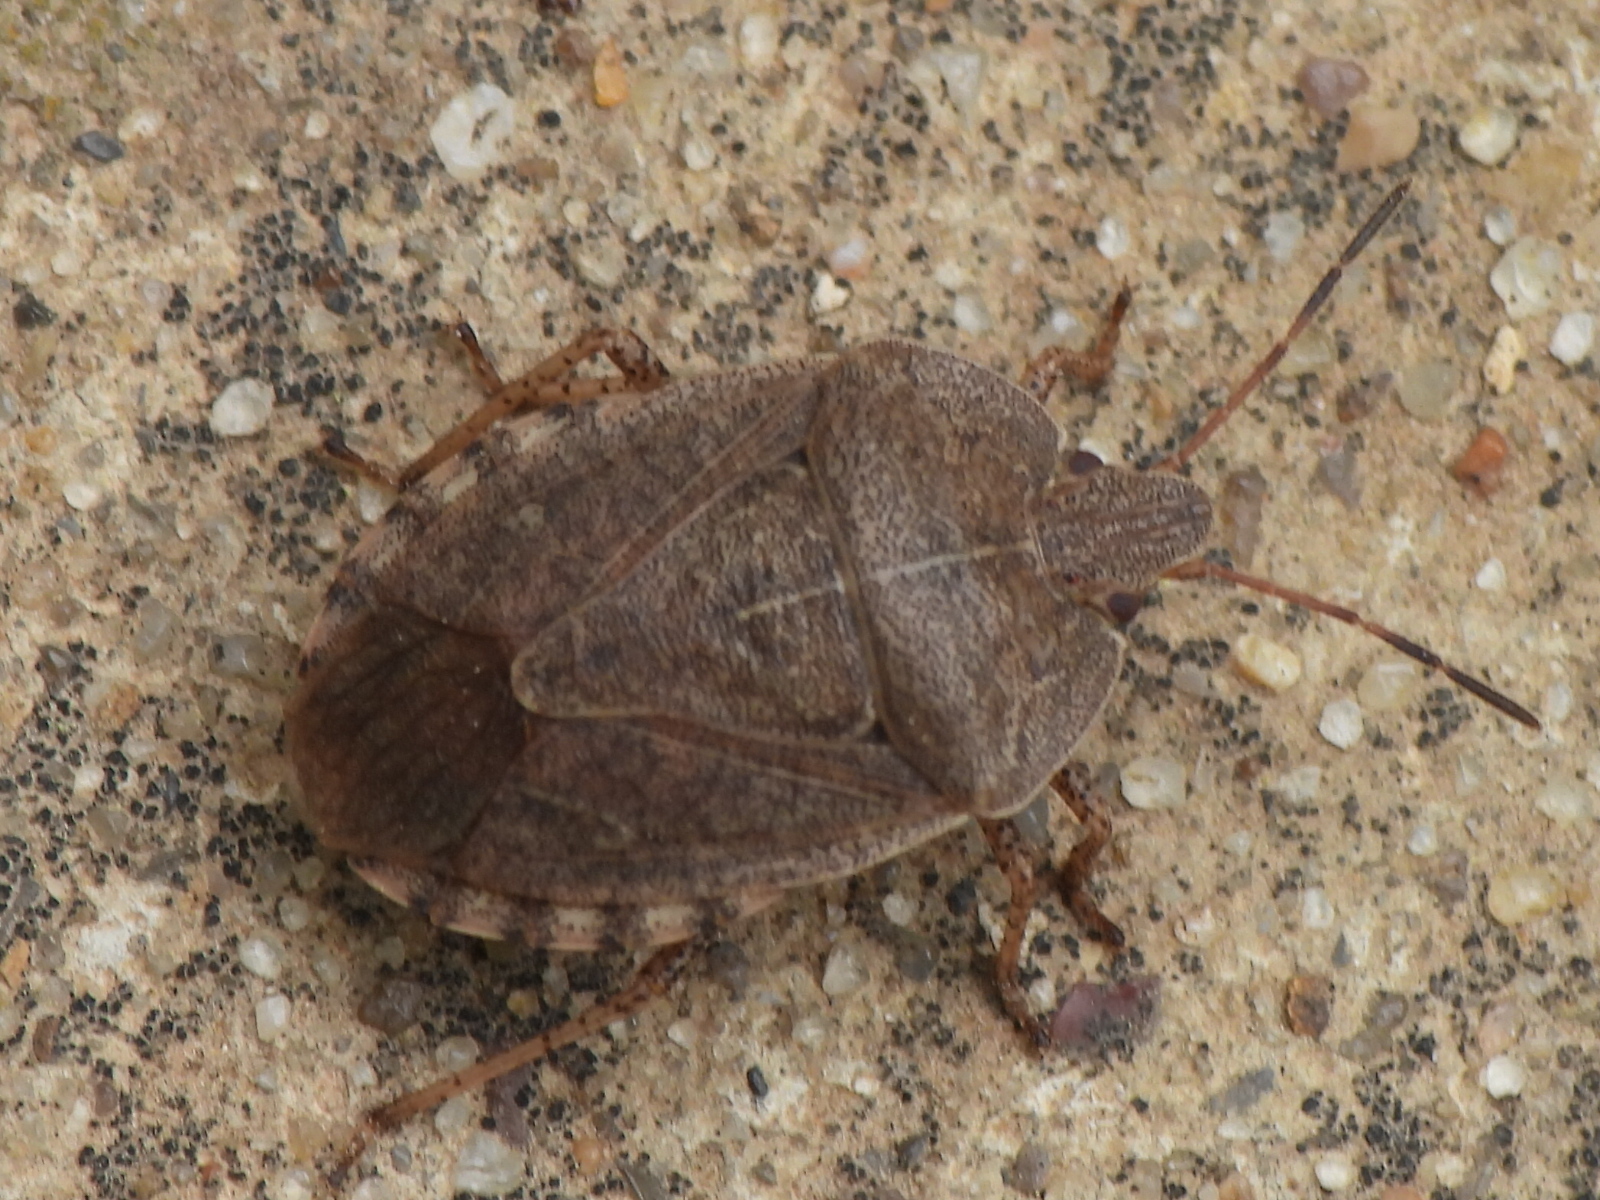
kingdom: Animalia
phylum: Arthropoda
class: Insecta
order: Hemiptera
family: Pentatomidae
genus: Menecles
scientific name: Menecles insertus
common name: Elf shoe stink bug
